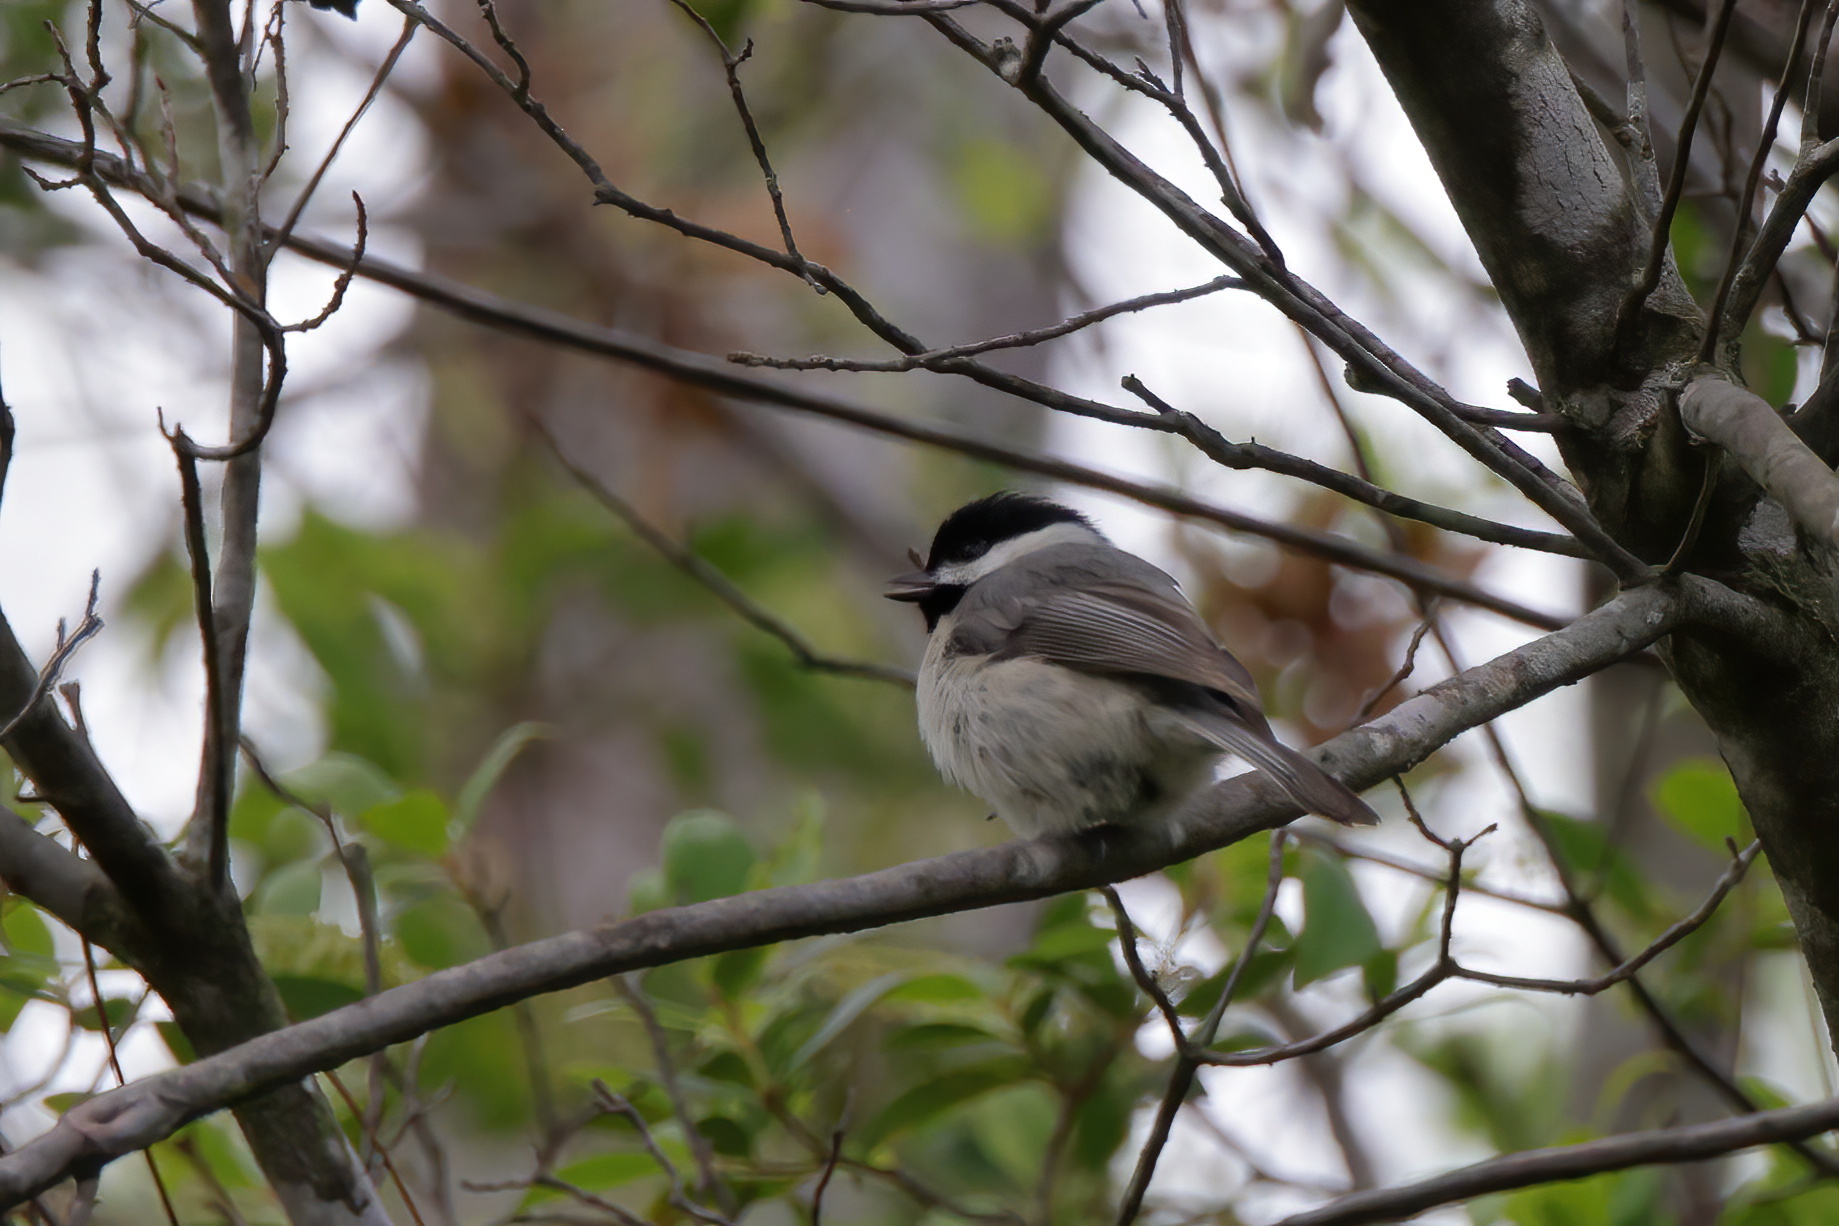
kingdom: Animalia
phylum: Chordata
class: Aves
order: Passeriformes
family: Paridae
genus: Poecile
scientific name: Poecile carolinensis
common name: Carolina chickadee
